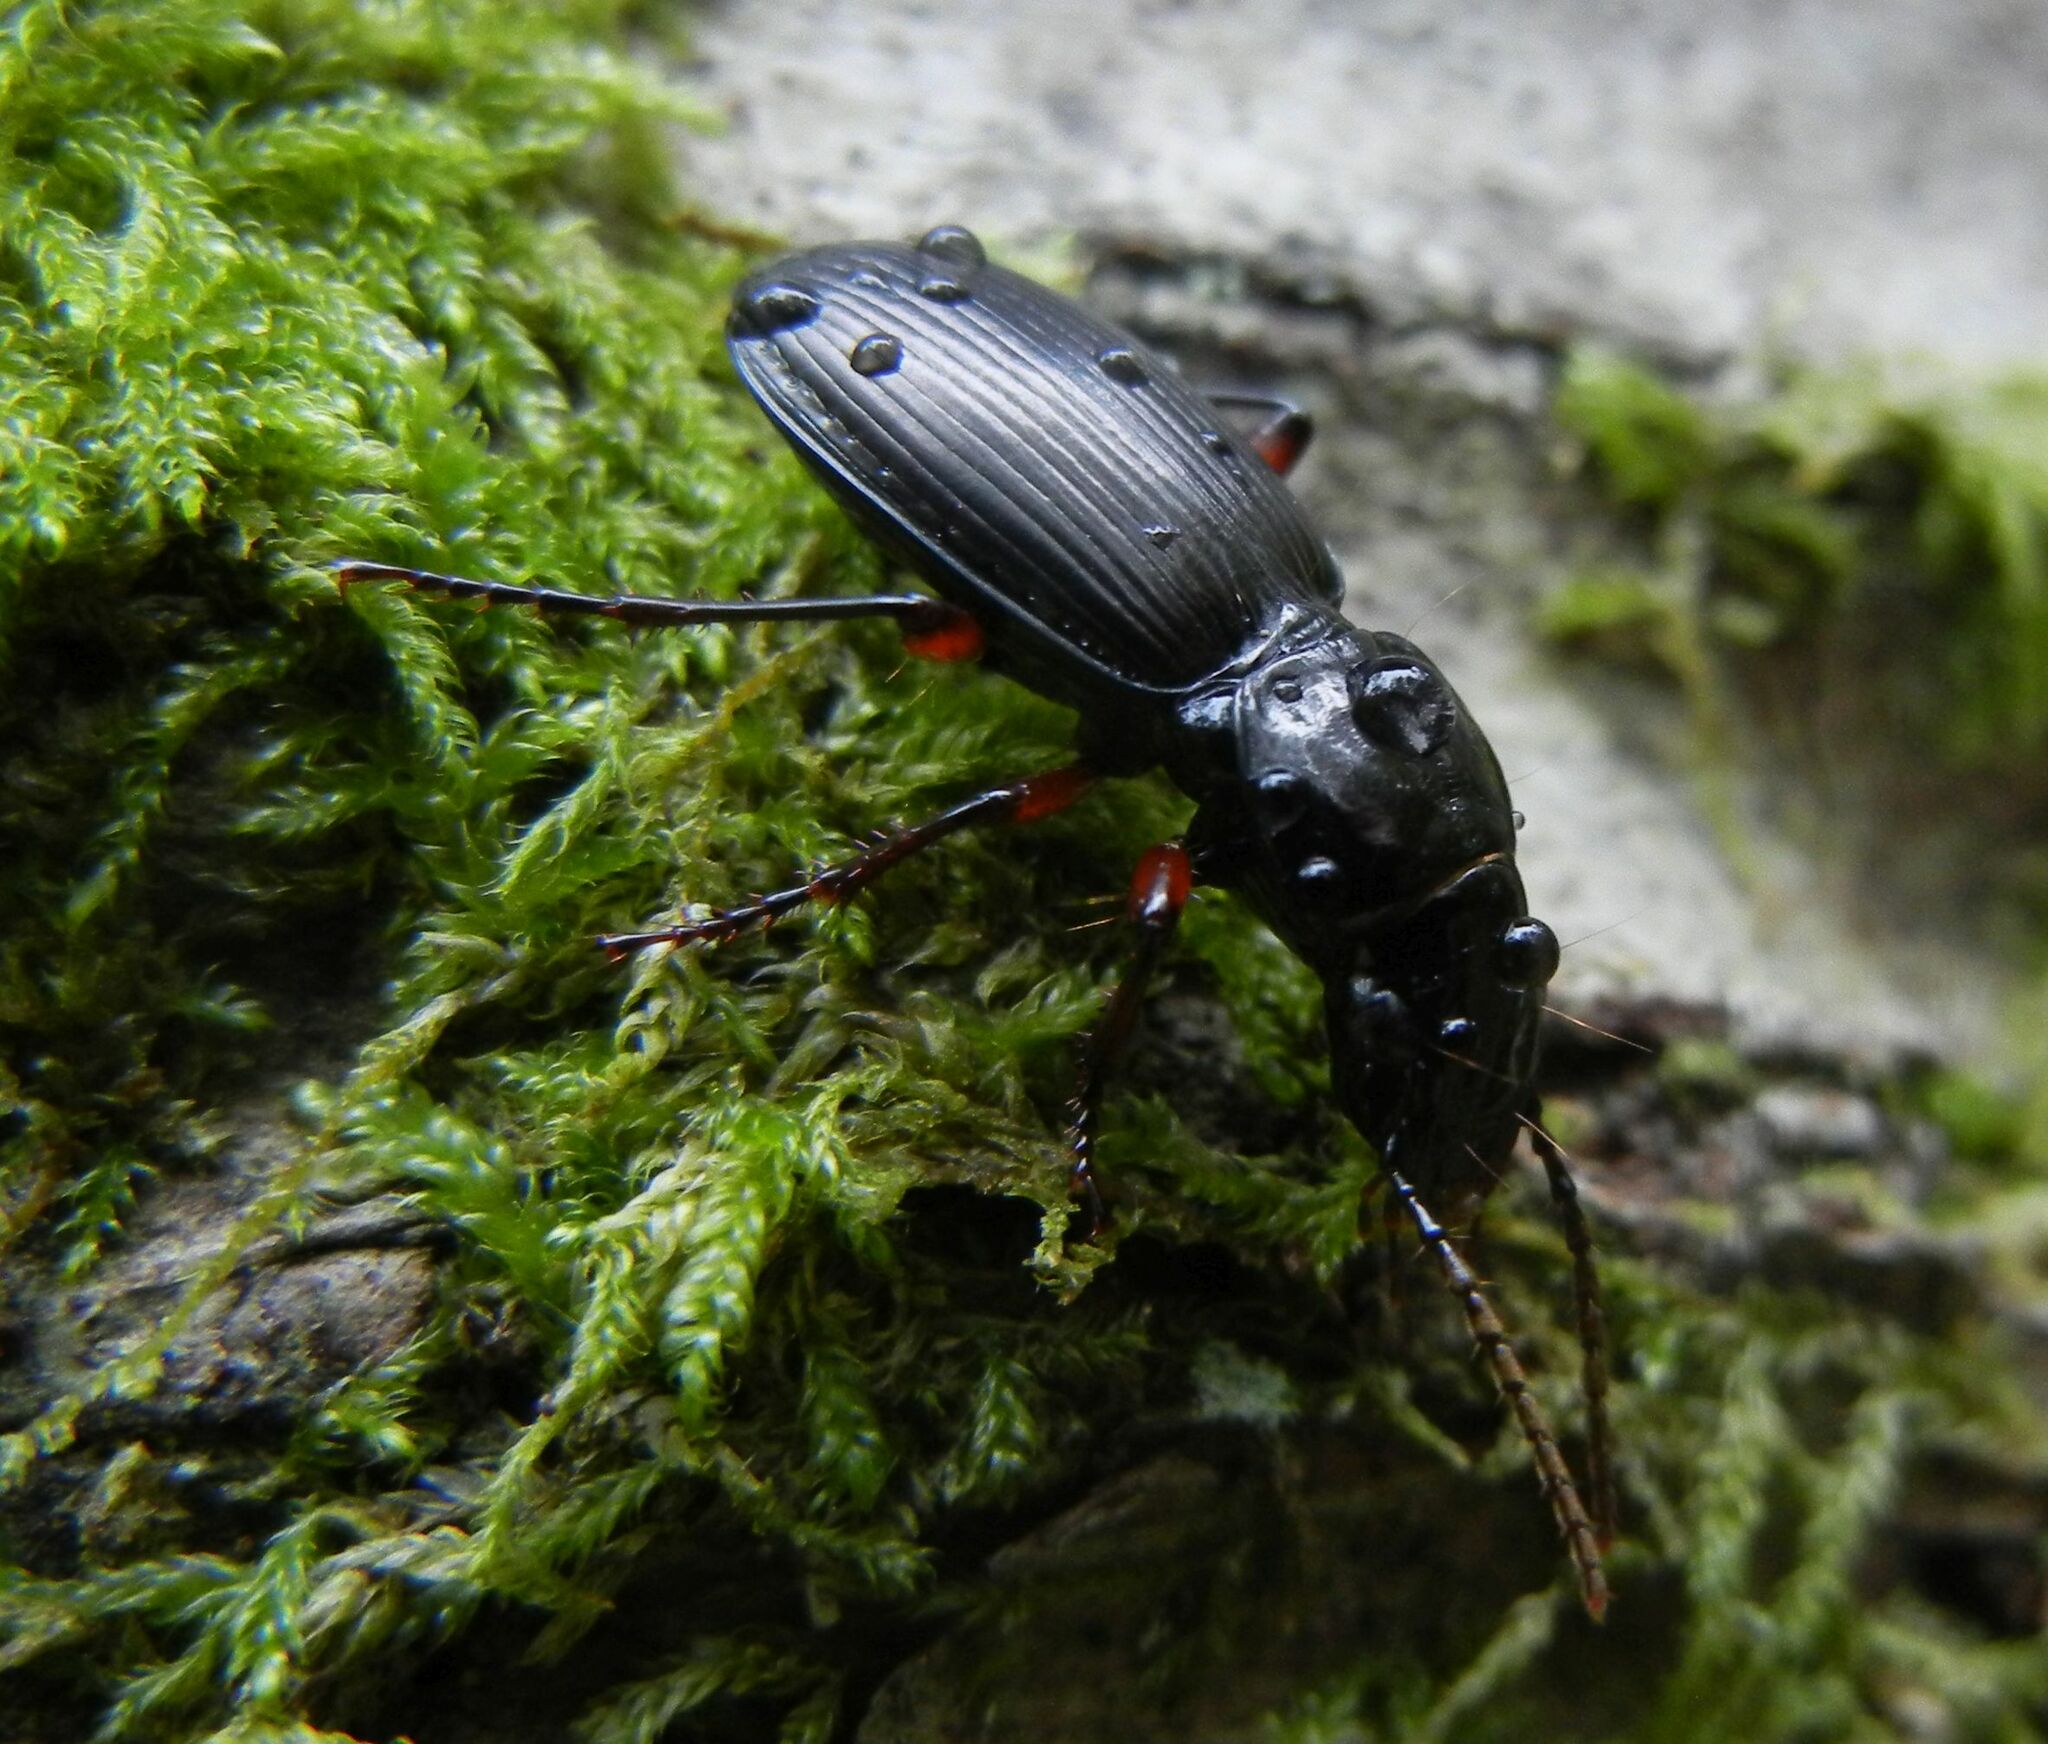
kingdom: Animalia
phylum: Arthropoda
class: Insecta
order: Coleoptera
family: Carabidae
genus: Pterostichus
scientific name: Pterostichus madidus
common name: Black clock
